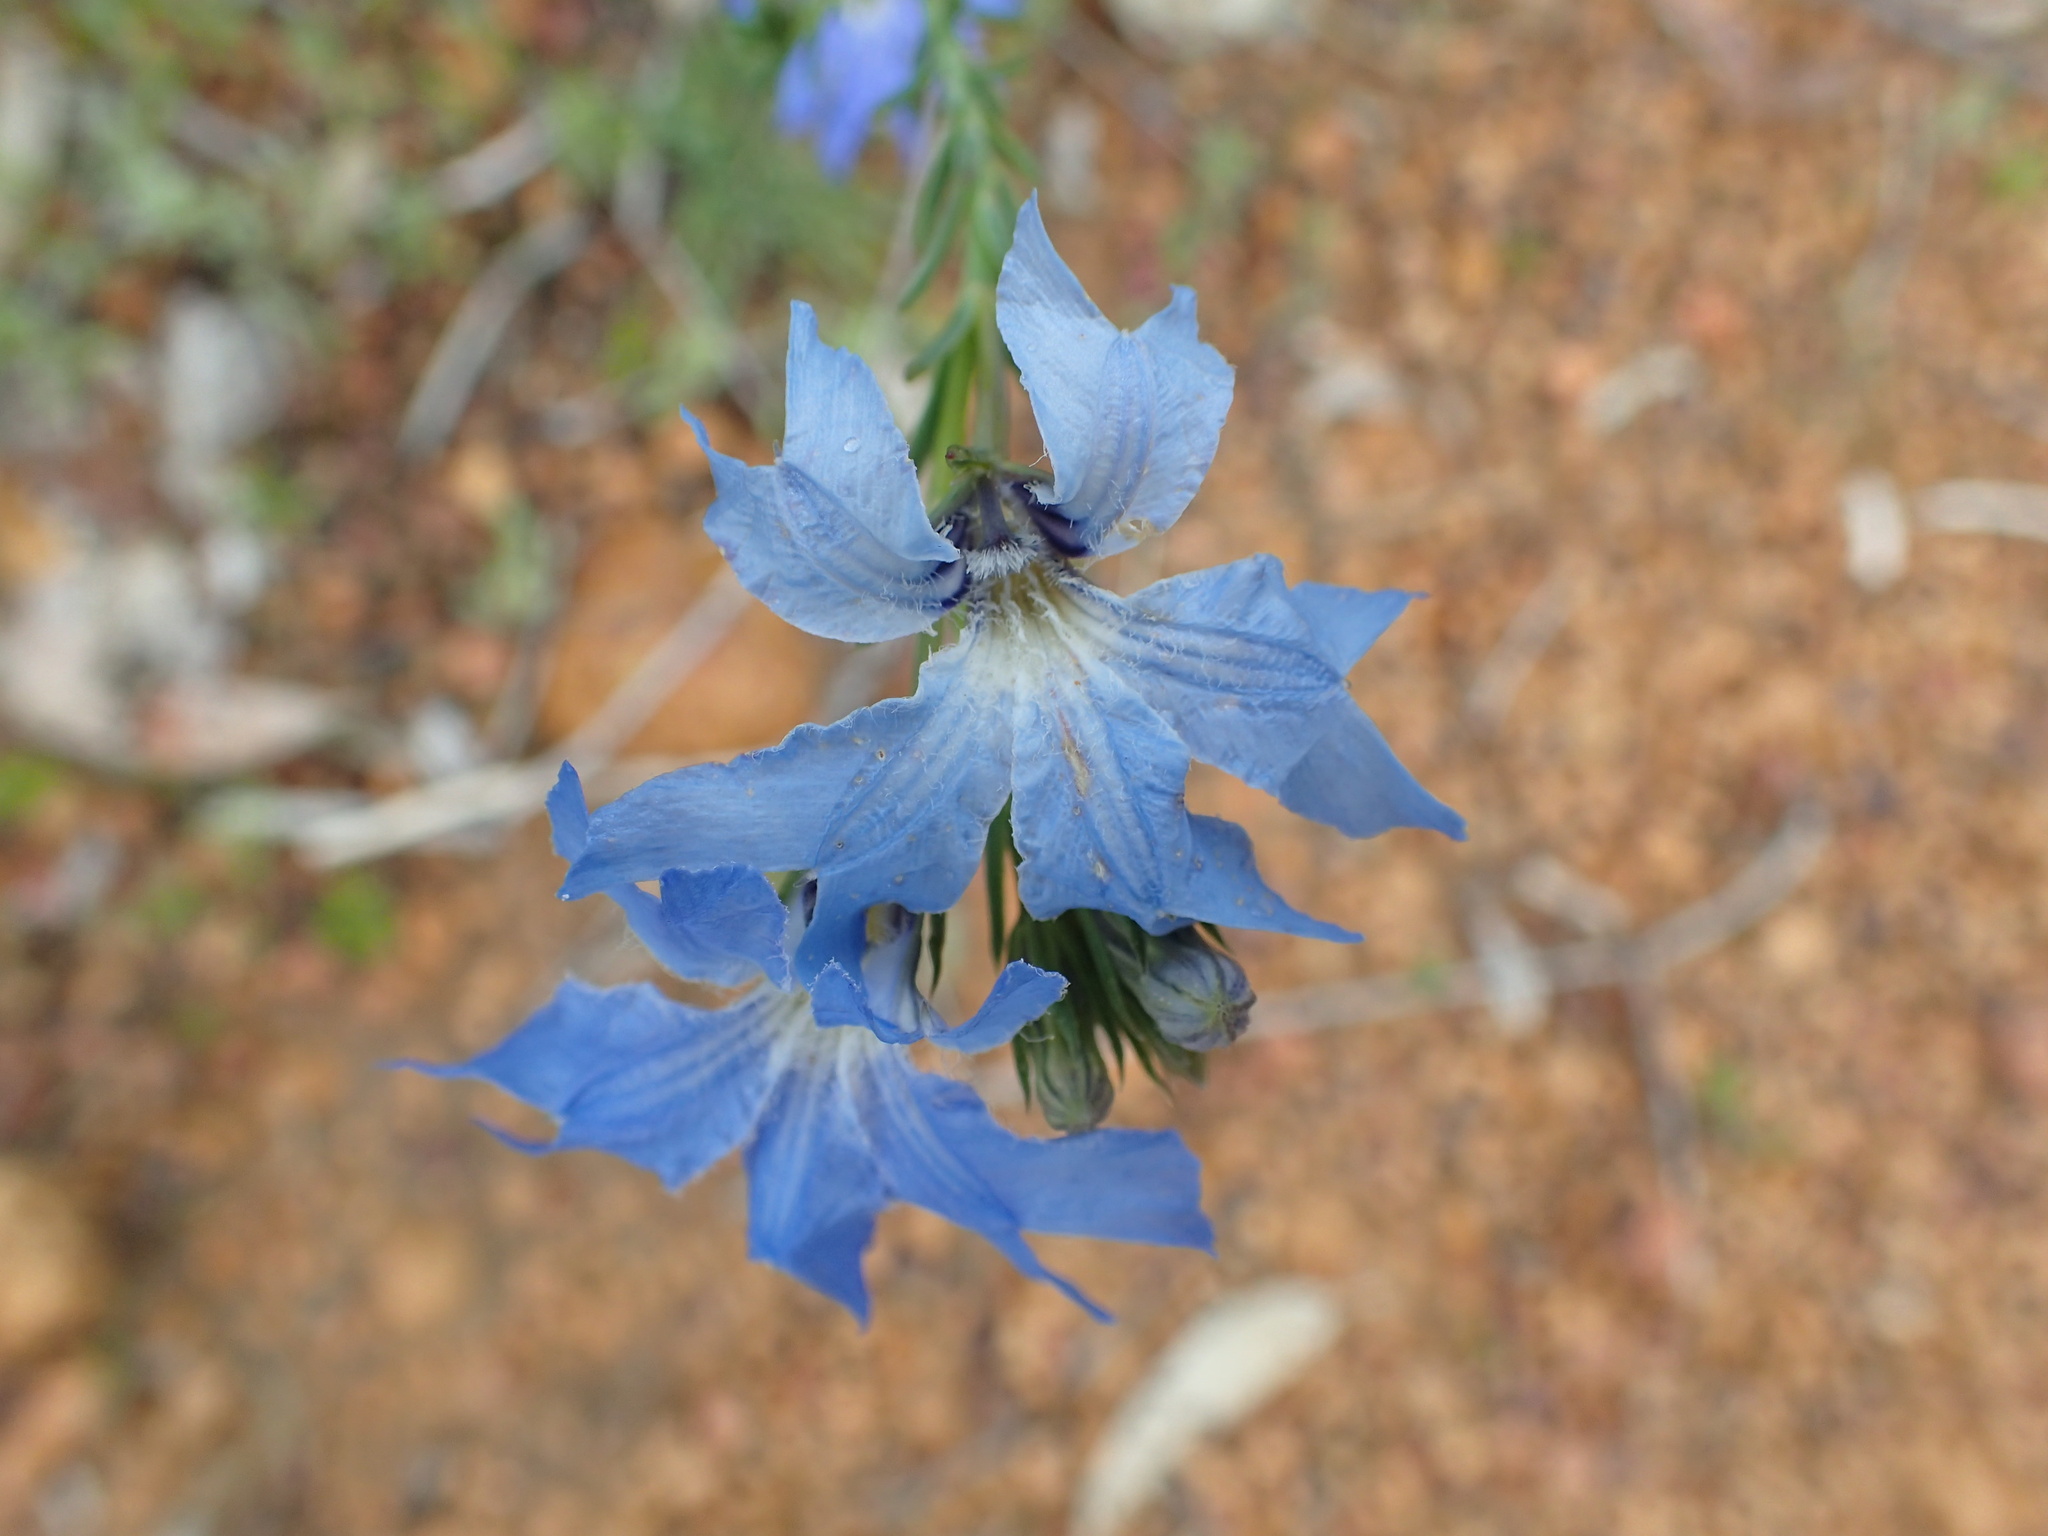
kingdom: Plantae
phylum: Tracheophyta
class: Magnoliopsida
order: Asterales
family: Goodeniaceae
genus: Lechenaultia
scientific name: Lechenaultia biloba
